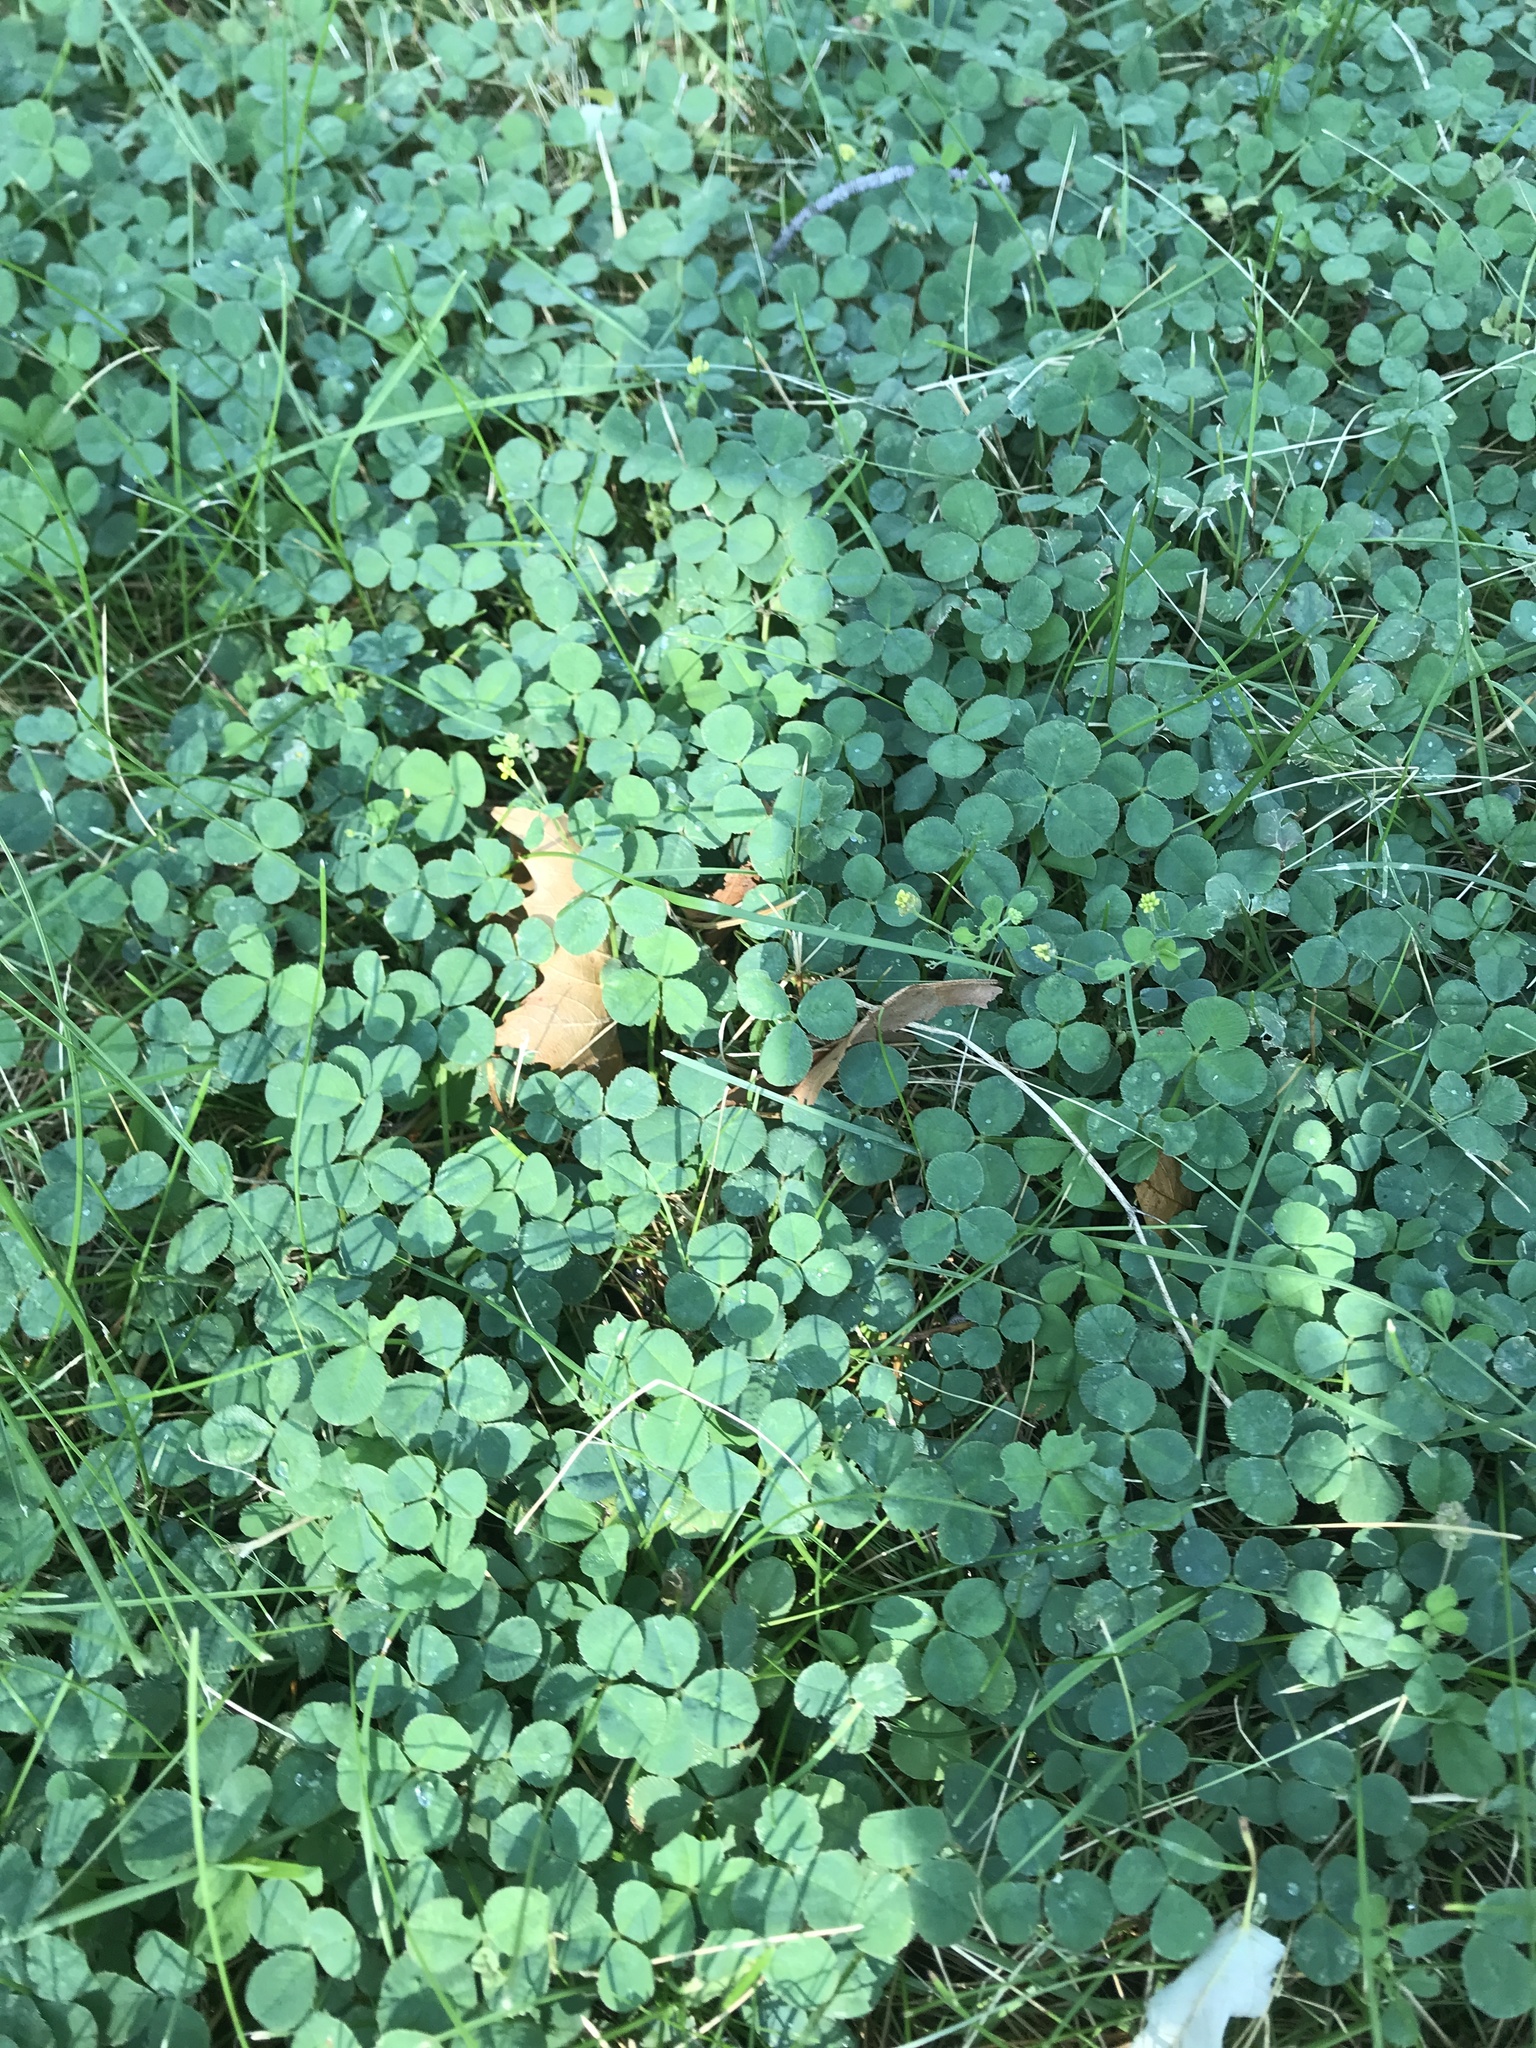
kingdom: Plantae
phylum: Tracheophyta
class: Magnoliopsida
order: Fabales
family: Fabaceae
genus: Medicago
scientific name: Medicago lupulina
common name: Black medick
